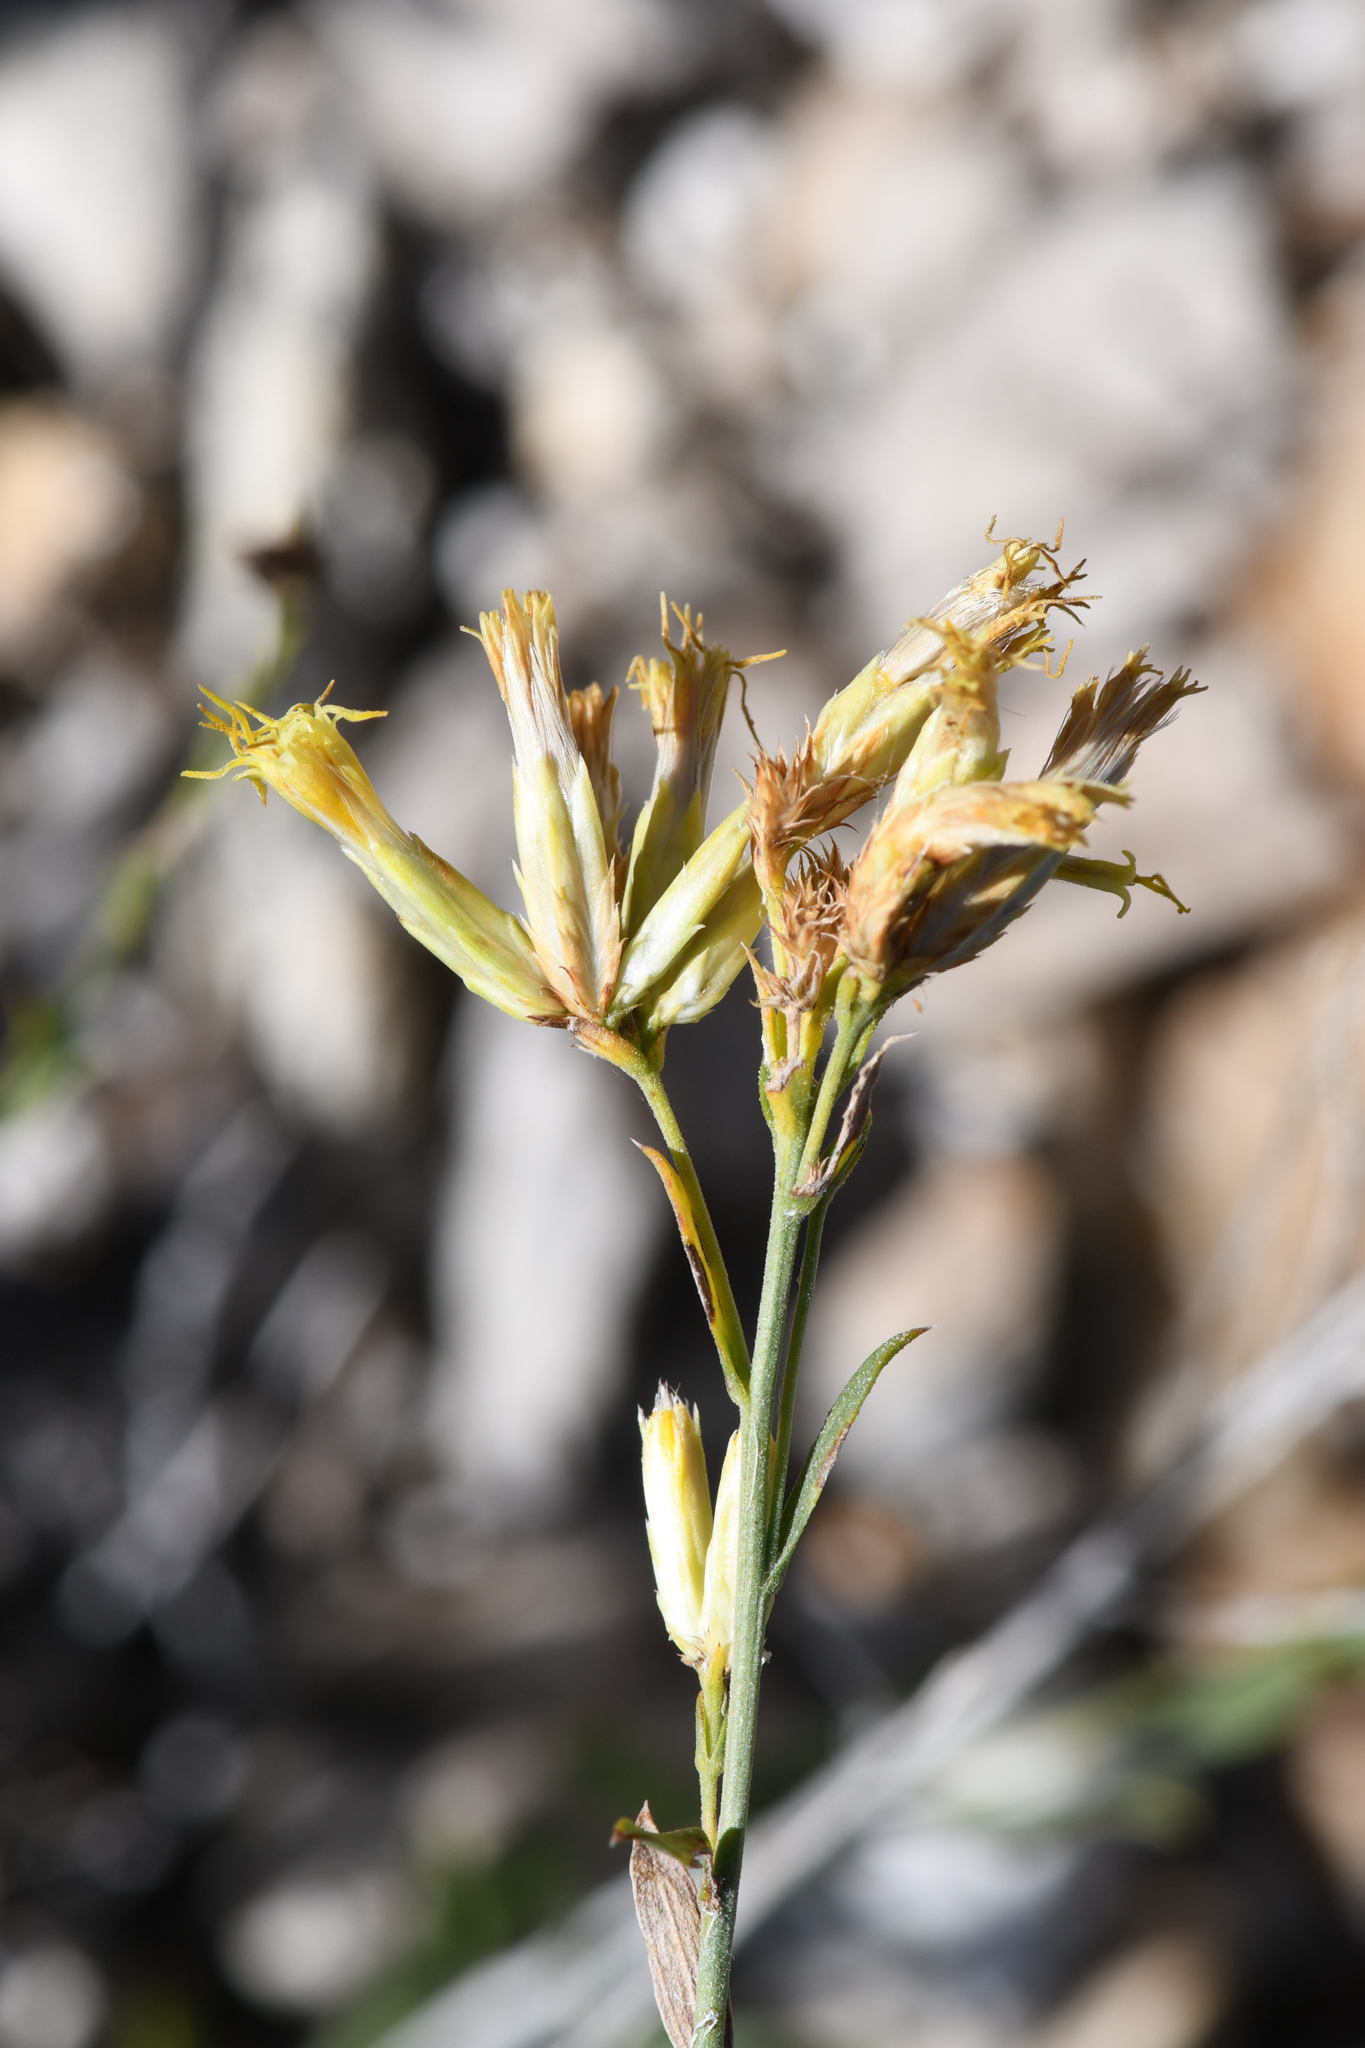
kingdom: Plantae
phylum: Tracheophyta
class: Magnoliopsida
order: Asterales
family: Asteraceae
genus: Chrysothamnus
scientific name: Chrysothamnus depressus
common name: Long-flower rabbitbrush
